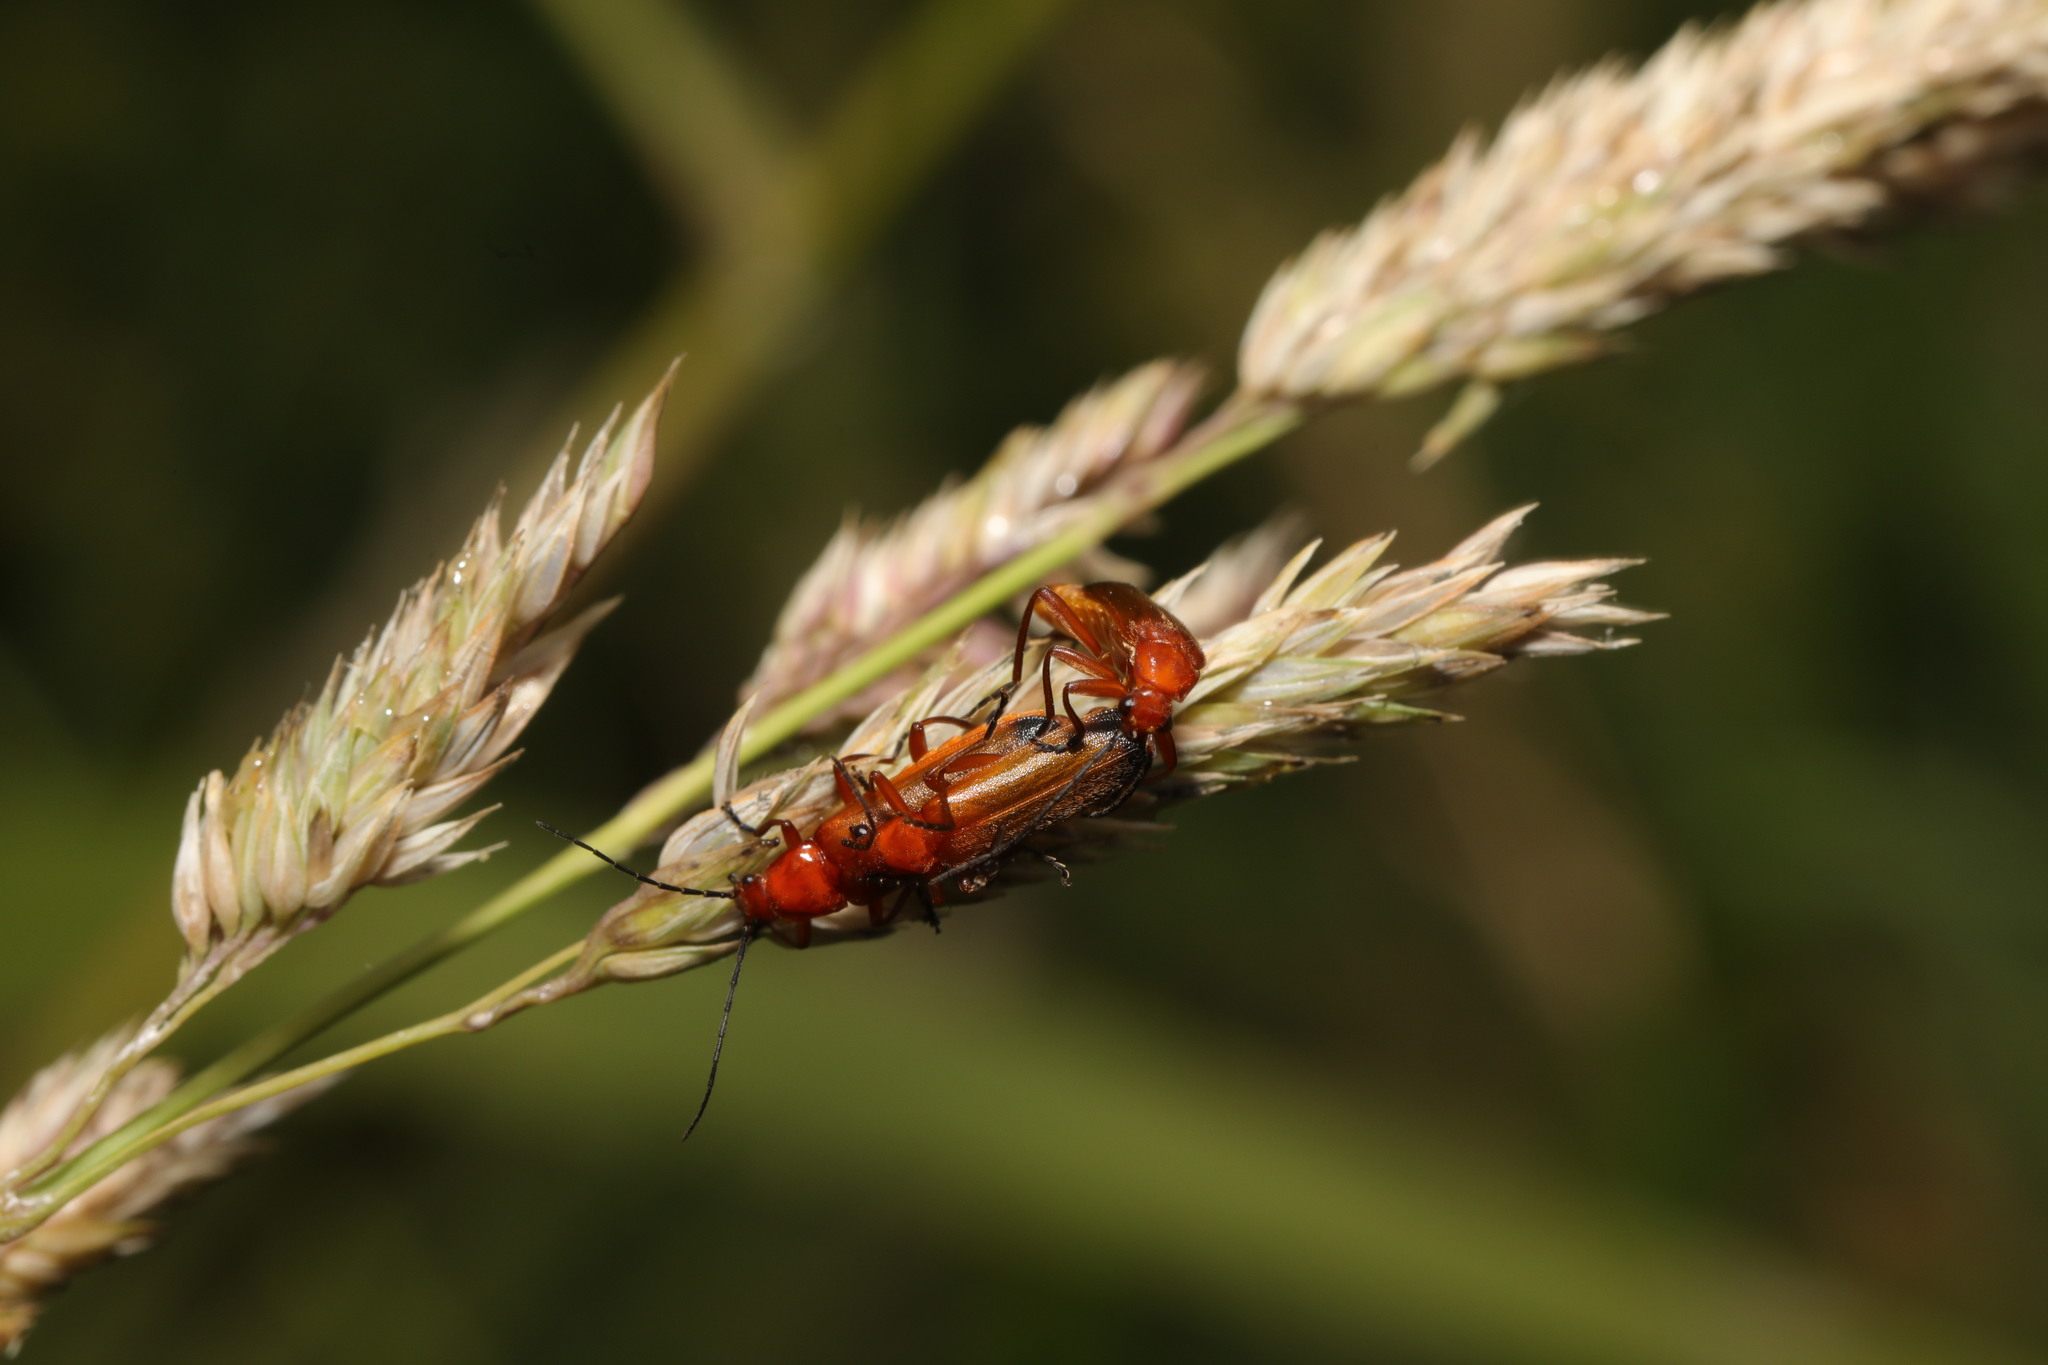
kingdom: Animalia
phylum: Arthropoda
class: Insecta
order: Coleoptera
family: Cantharidae
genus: Rhagonycha
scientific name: Rhagonycha fulva
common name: Common red soldier beetle
